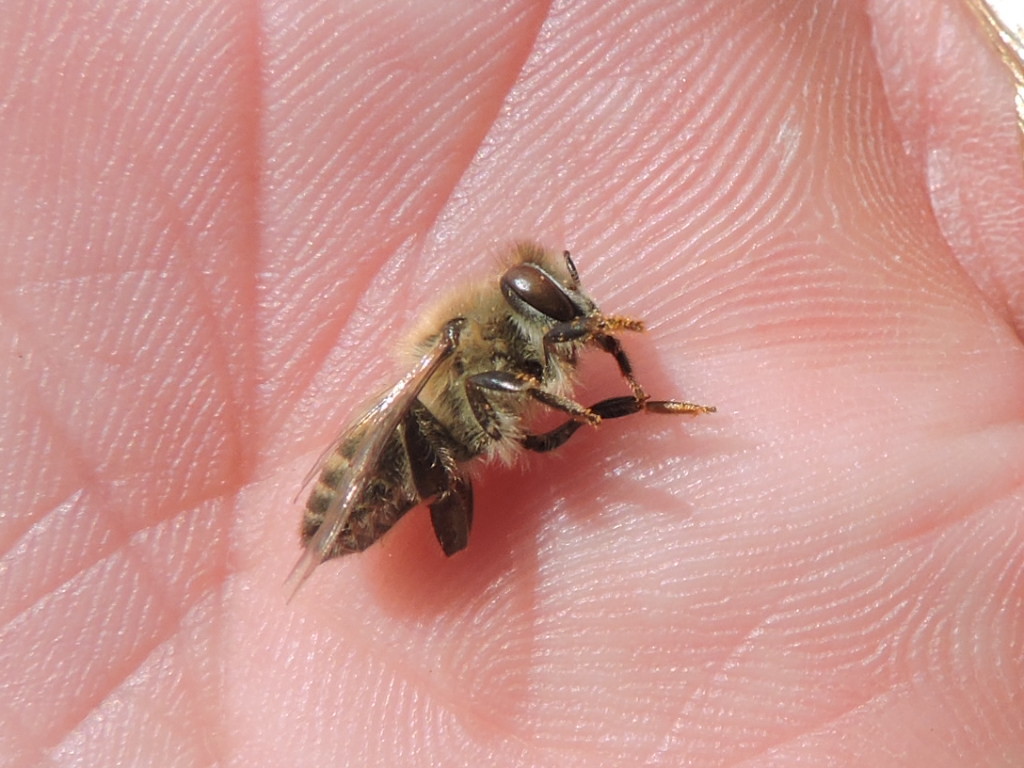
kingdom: Animalia
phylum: Arthropoda
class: Insecta
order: Hymenoptera
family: Apidae
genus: Apis
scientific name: Apis mellifera
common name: Honey bee
